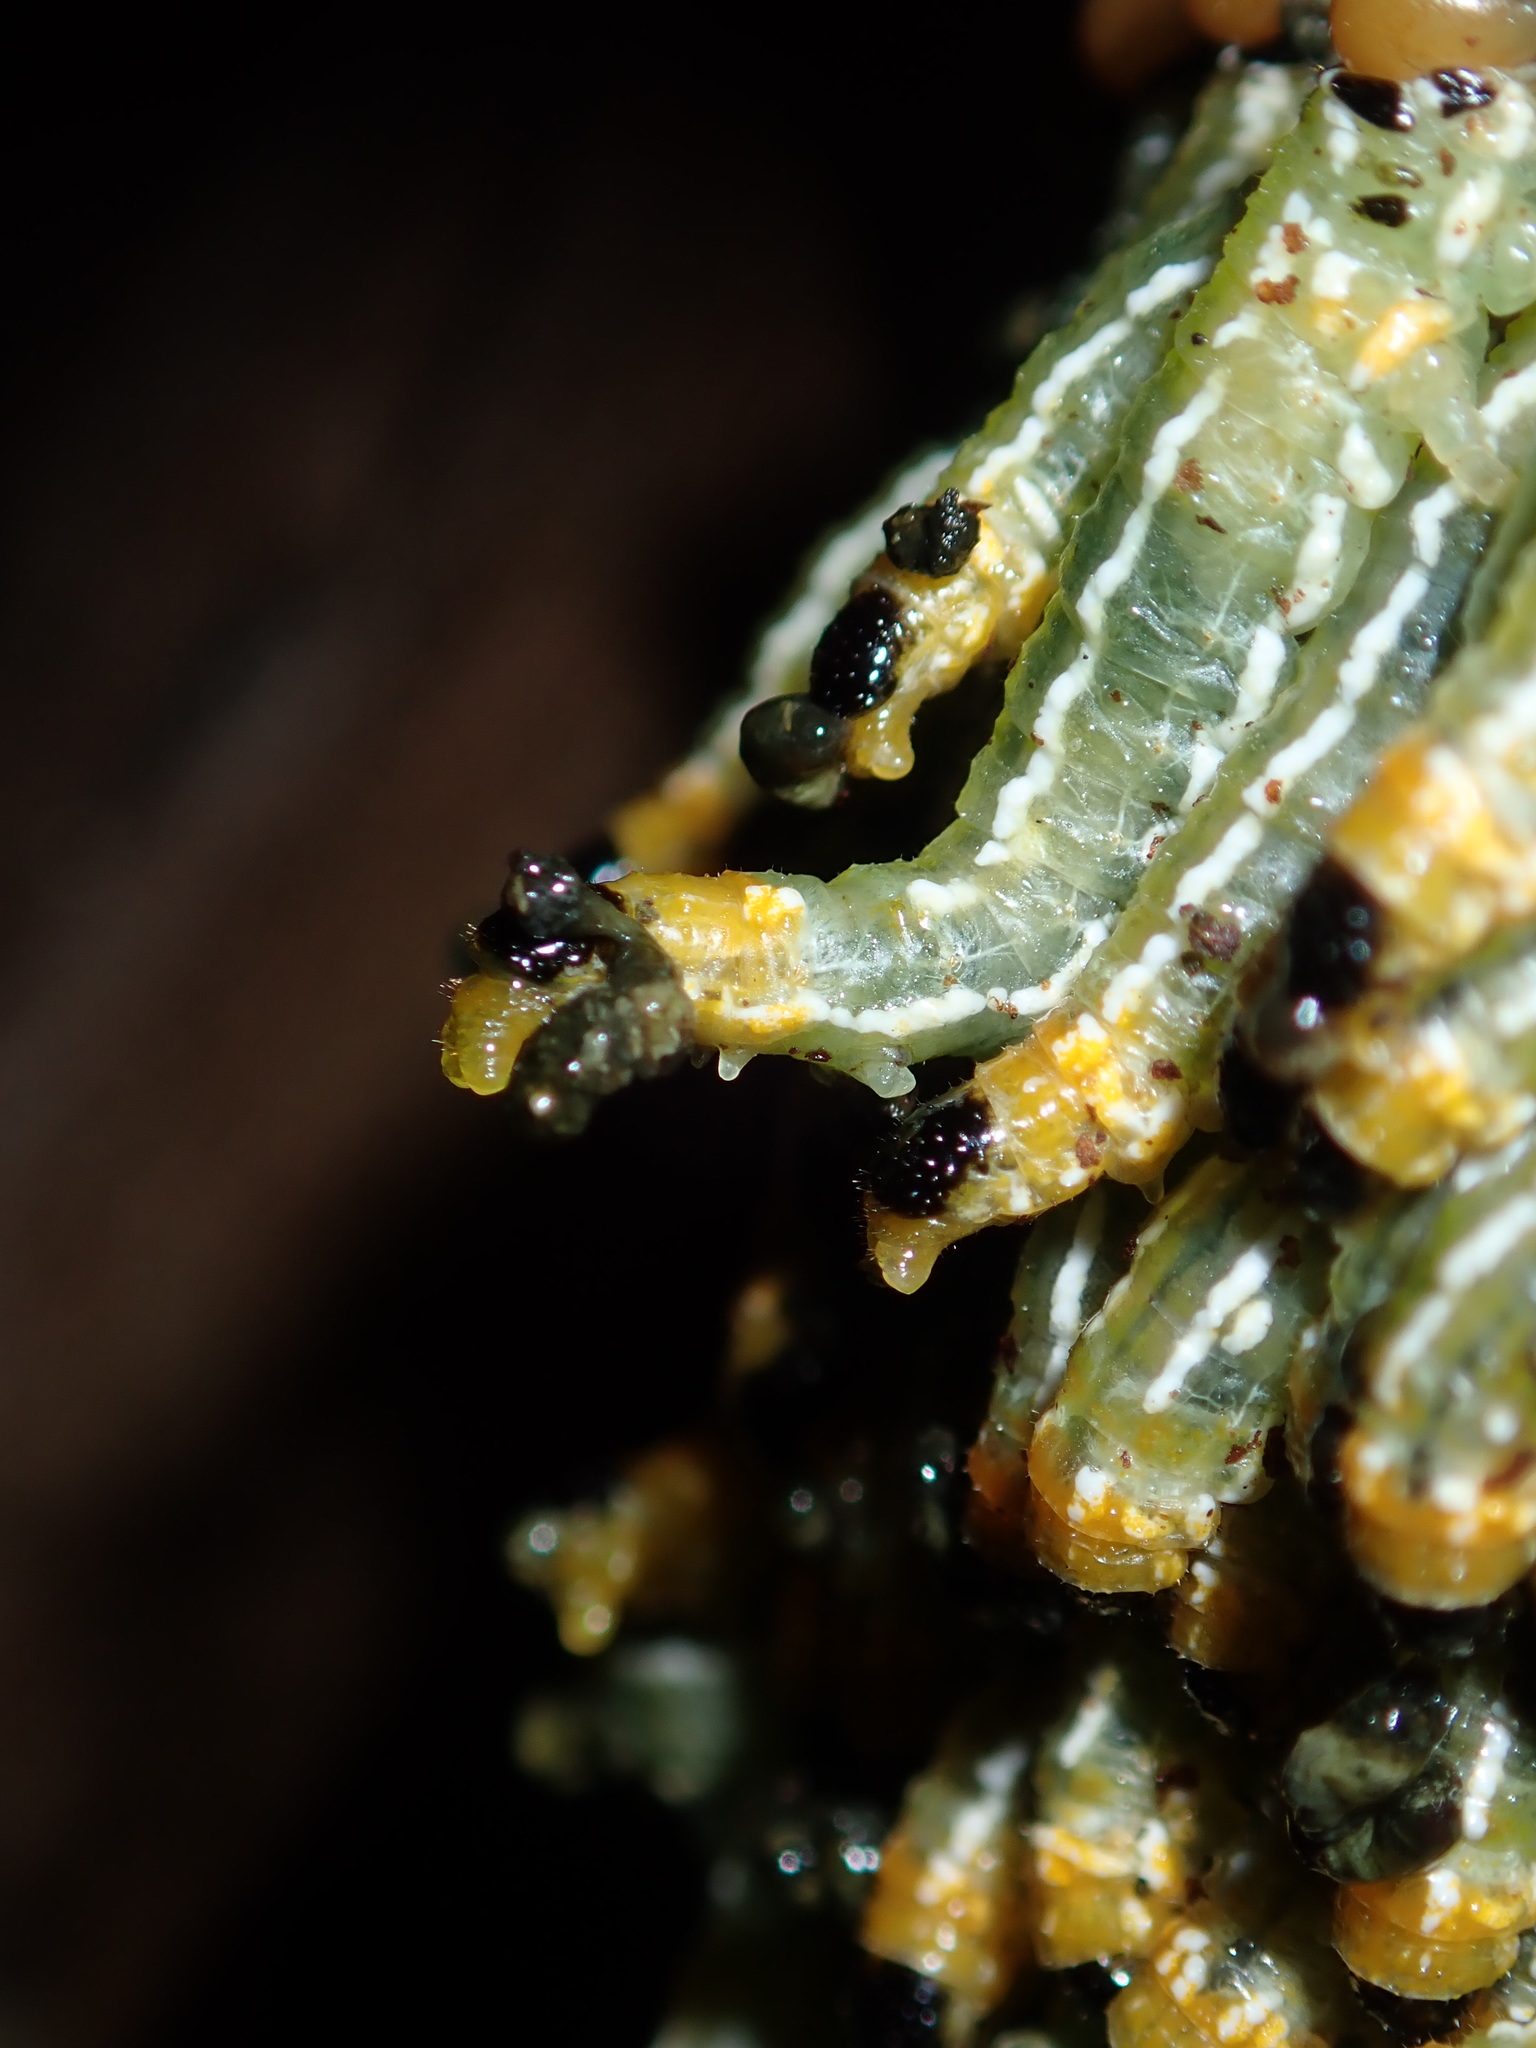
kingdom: Animalia
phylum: Arthropoda
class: Insecta
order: Hymenoptera
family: Pergidae
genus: Pteryperga
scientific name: Pteryperga galla
